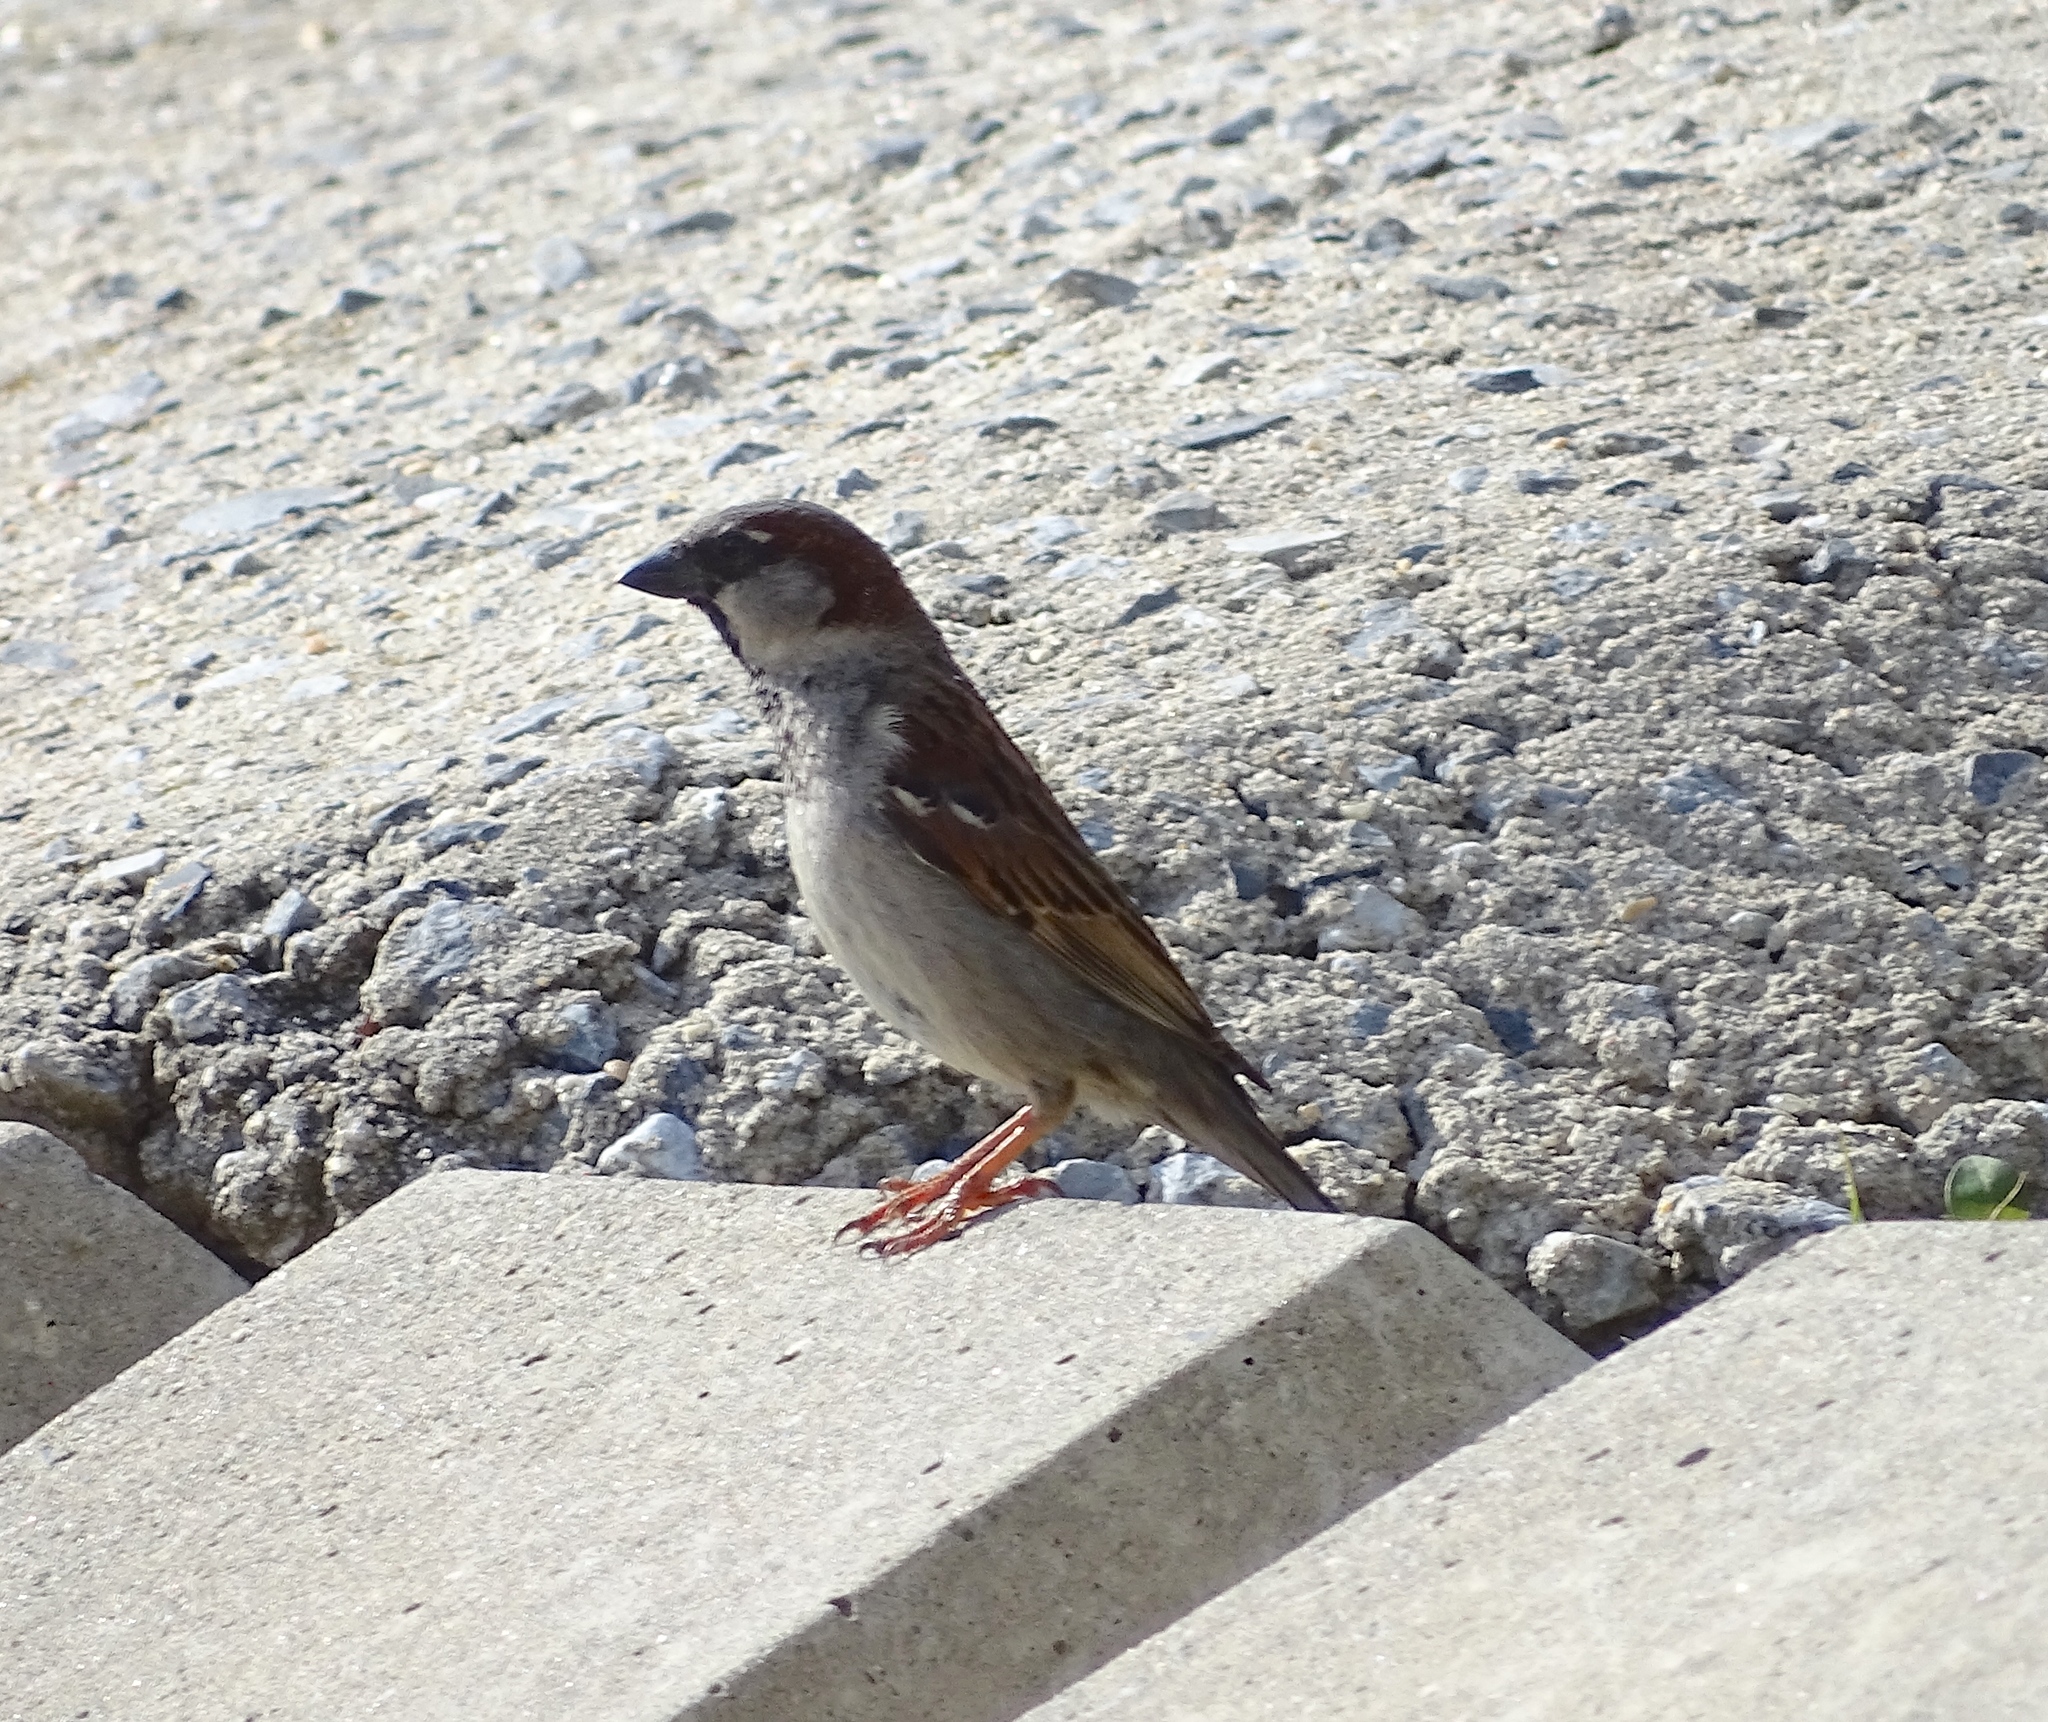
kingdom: Animalia
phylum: Chordata
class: Aves
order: Passeriformes
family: Passeridae
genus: Passer
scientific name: Passer domesticus
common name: House sparrow
